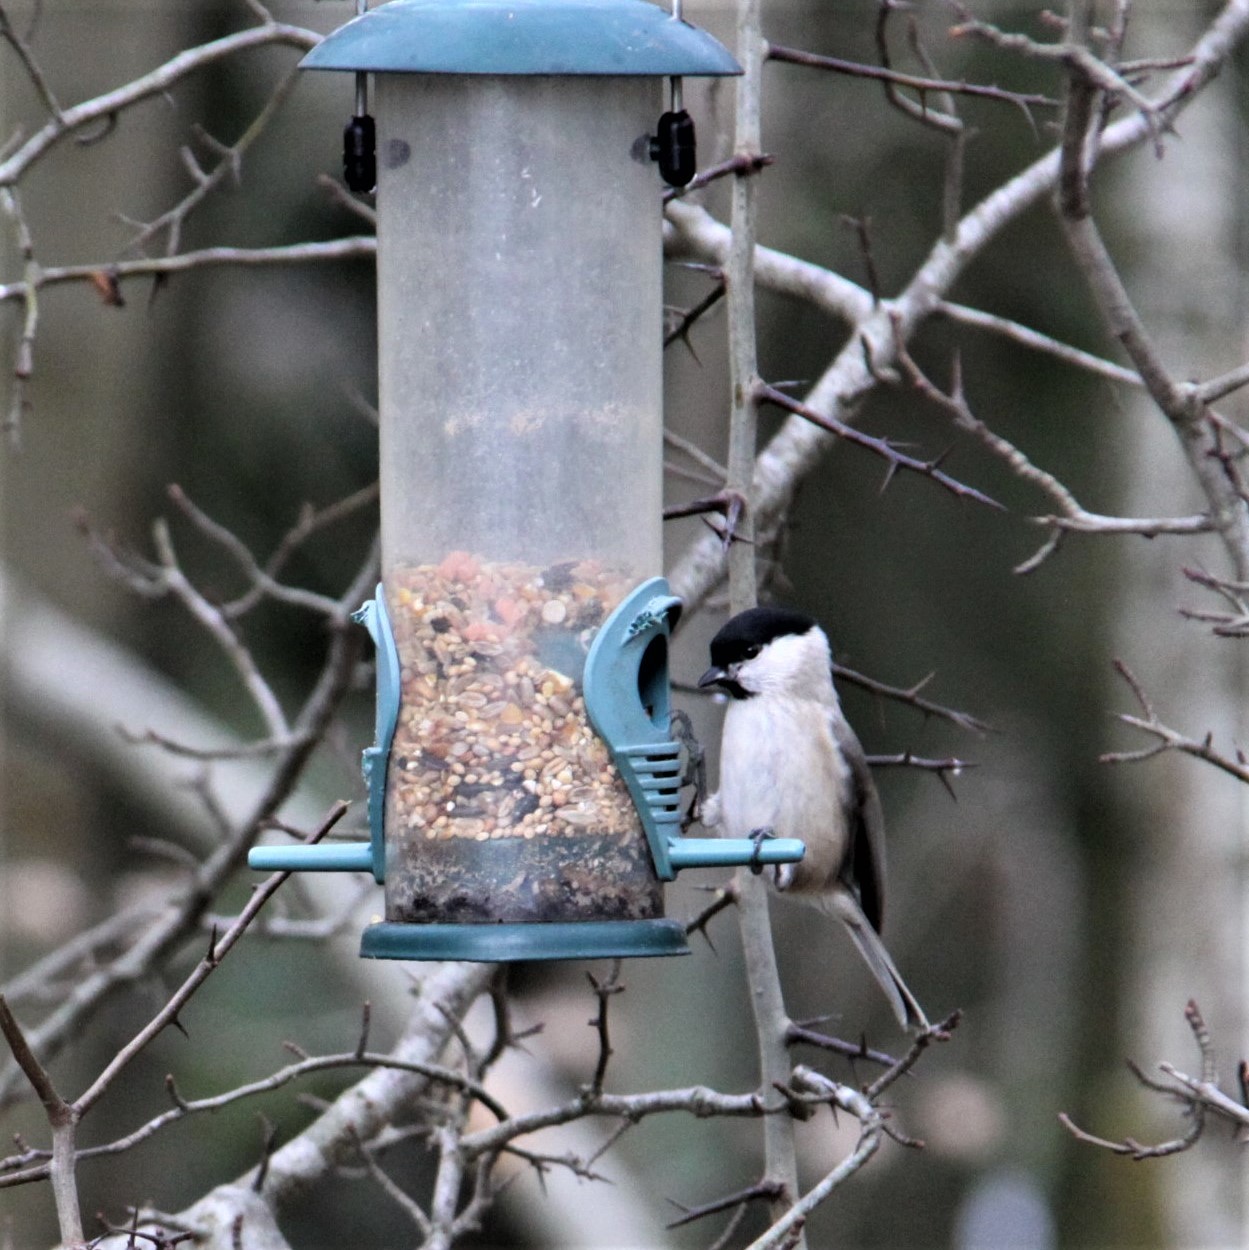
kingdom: Animalia
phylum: Chordata
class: Aves
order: Passeriformes
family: Paridae
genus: Poecile
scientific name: Poecile palustris
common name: Marsh tit
